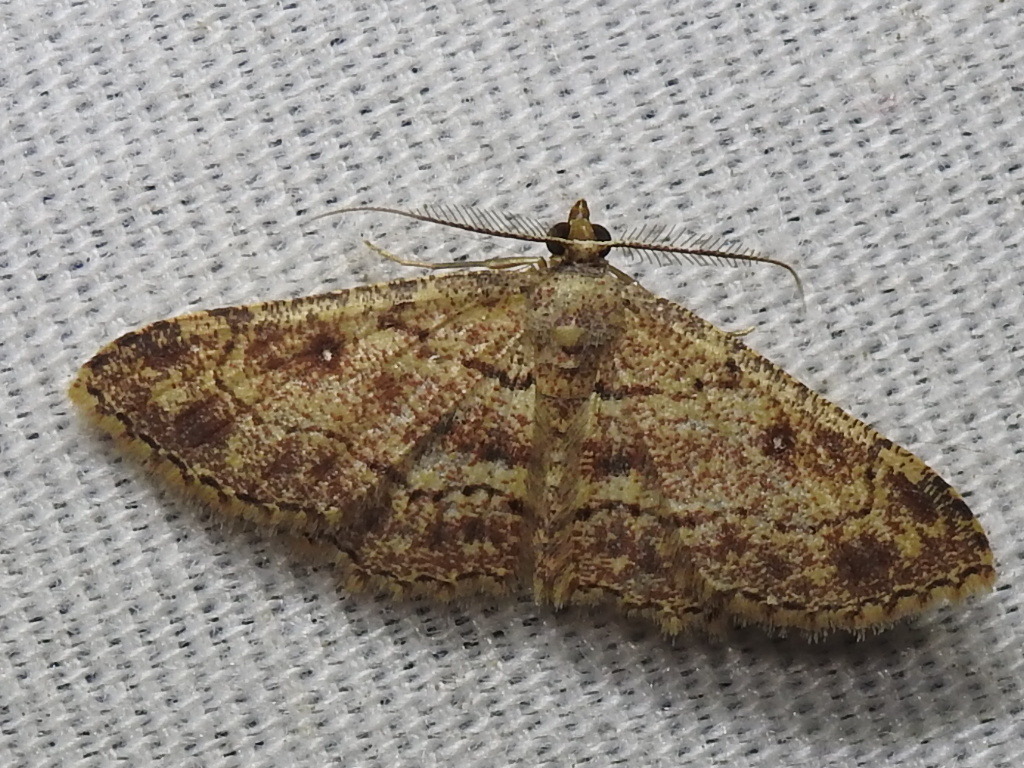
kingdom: Animalia
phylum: Arthropoda
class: Insecta
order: Lepidoptera
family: Geometridae
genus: Cyclophora
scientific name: Cyclophora nanaria
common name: Cankerworm
